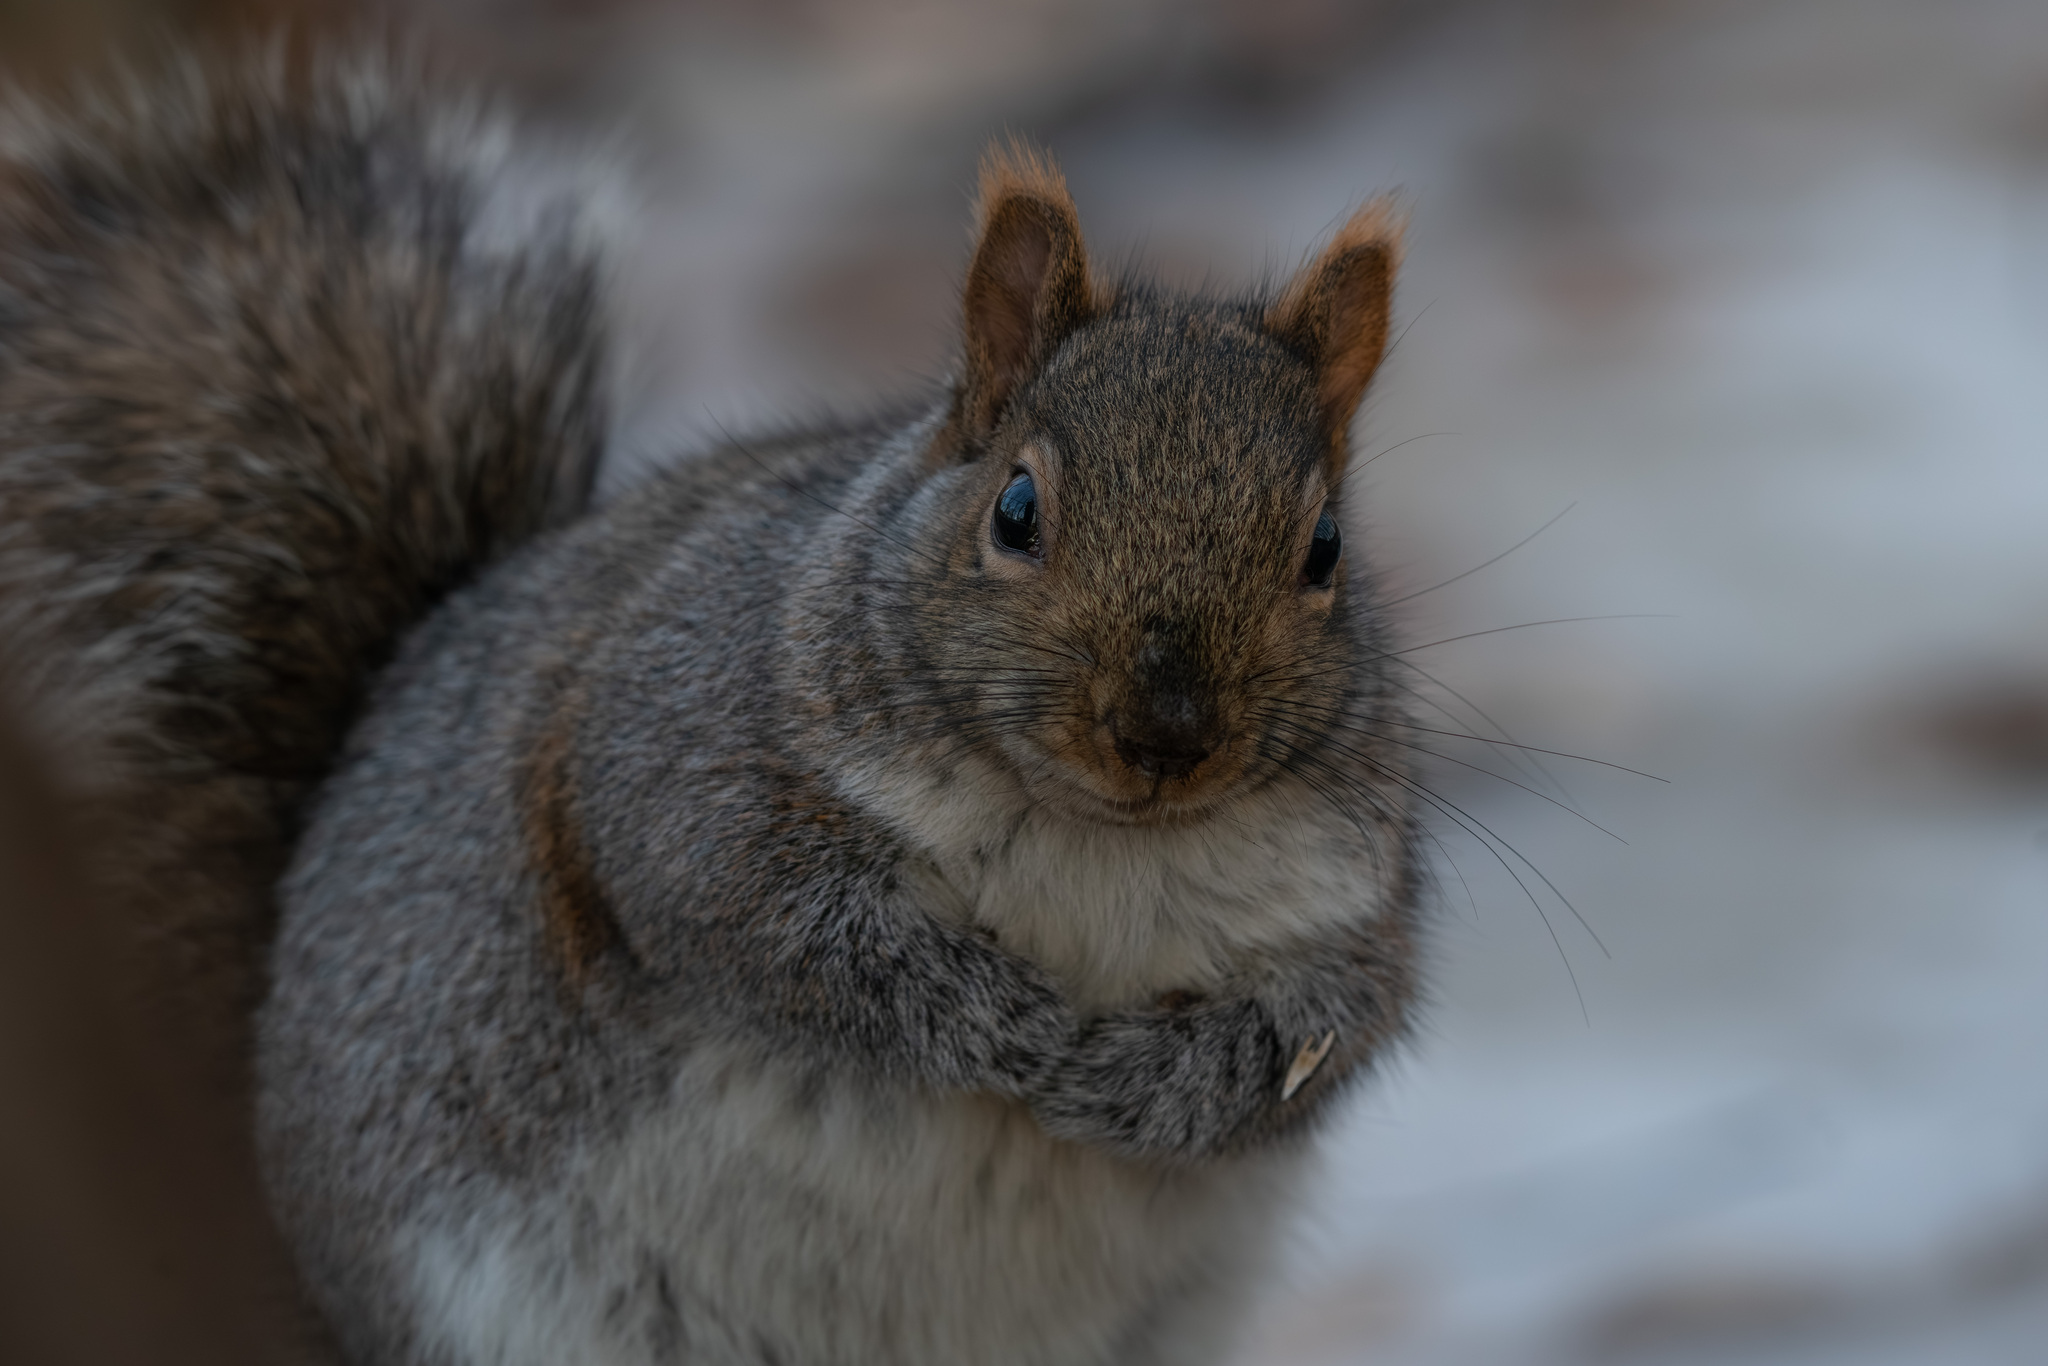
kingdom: Animalia
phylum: Chordata
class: Mammalia
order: Rodentia
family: Sciuridae
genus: Sciurus
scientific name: Sciurus carolinensis
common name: Eastern gray squirrel
